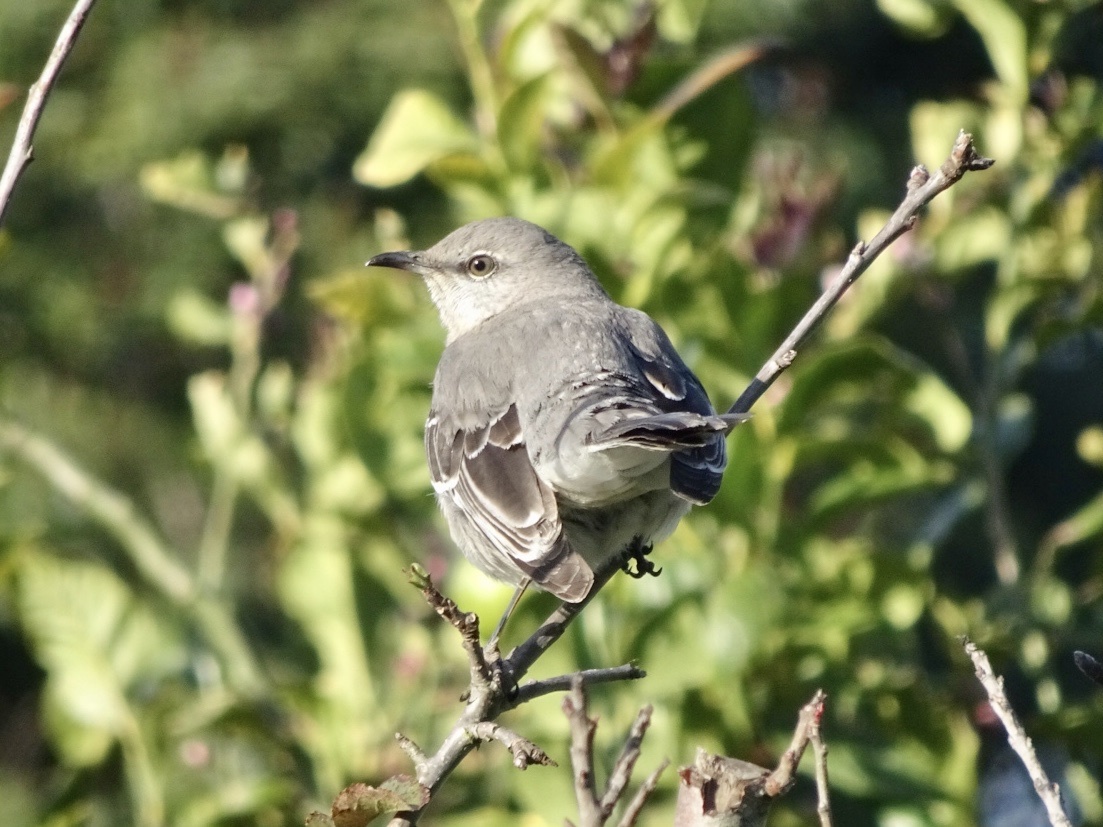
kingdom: Animalia
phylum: Chordata
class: Aves
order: Passeriformes
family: Mimidae
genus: Mimus
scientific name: Mimus polyglottos
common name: Northern mockingbird
